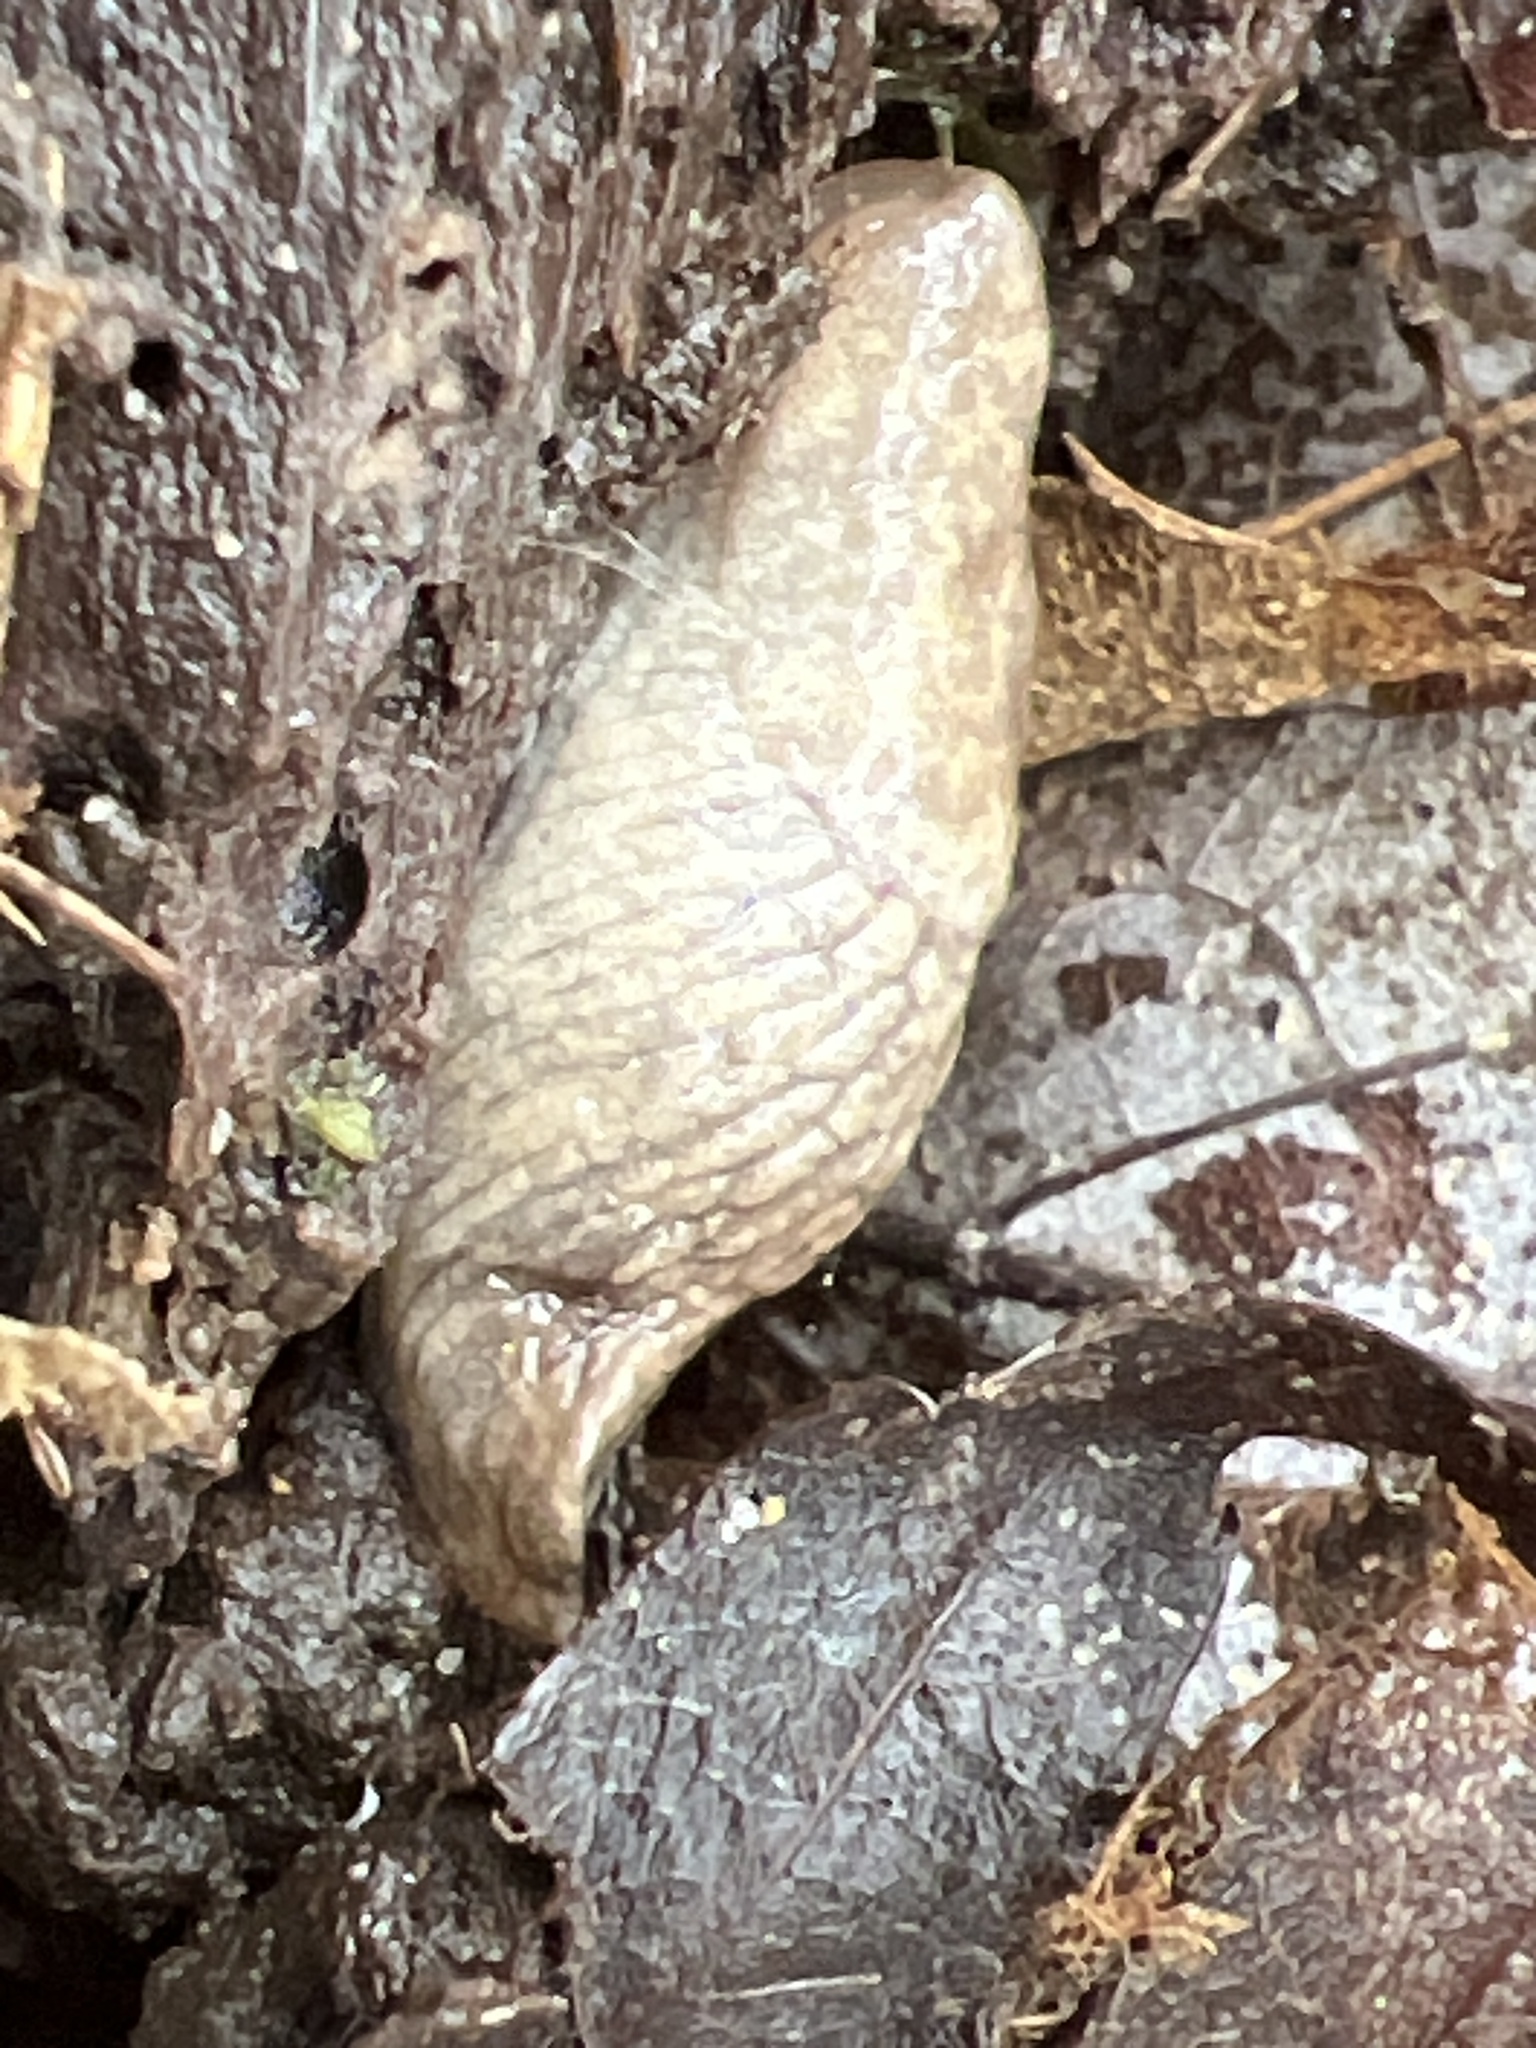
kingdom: Animalia
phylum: Mollusca
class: Gastropoda
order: Stylommatophora
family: Agriolimacidae
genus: Deroceras
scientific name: Deroceras reticulatum
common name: Gray field slug
